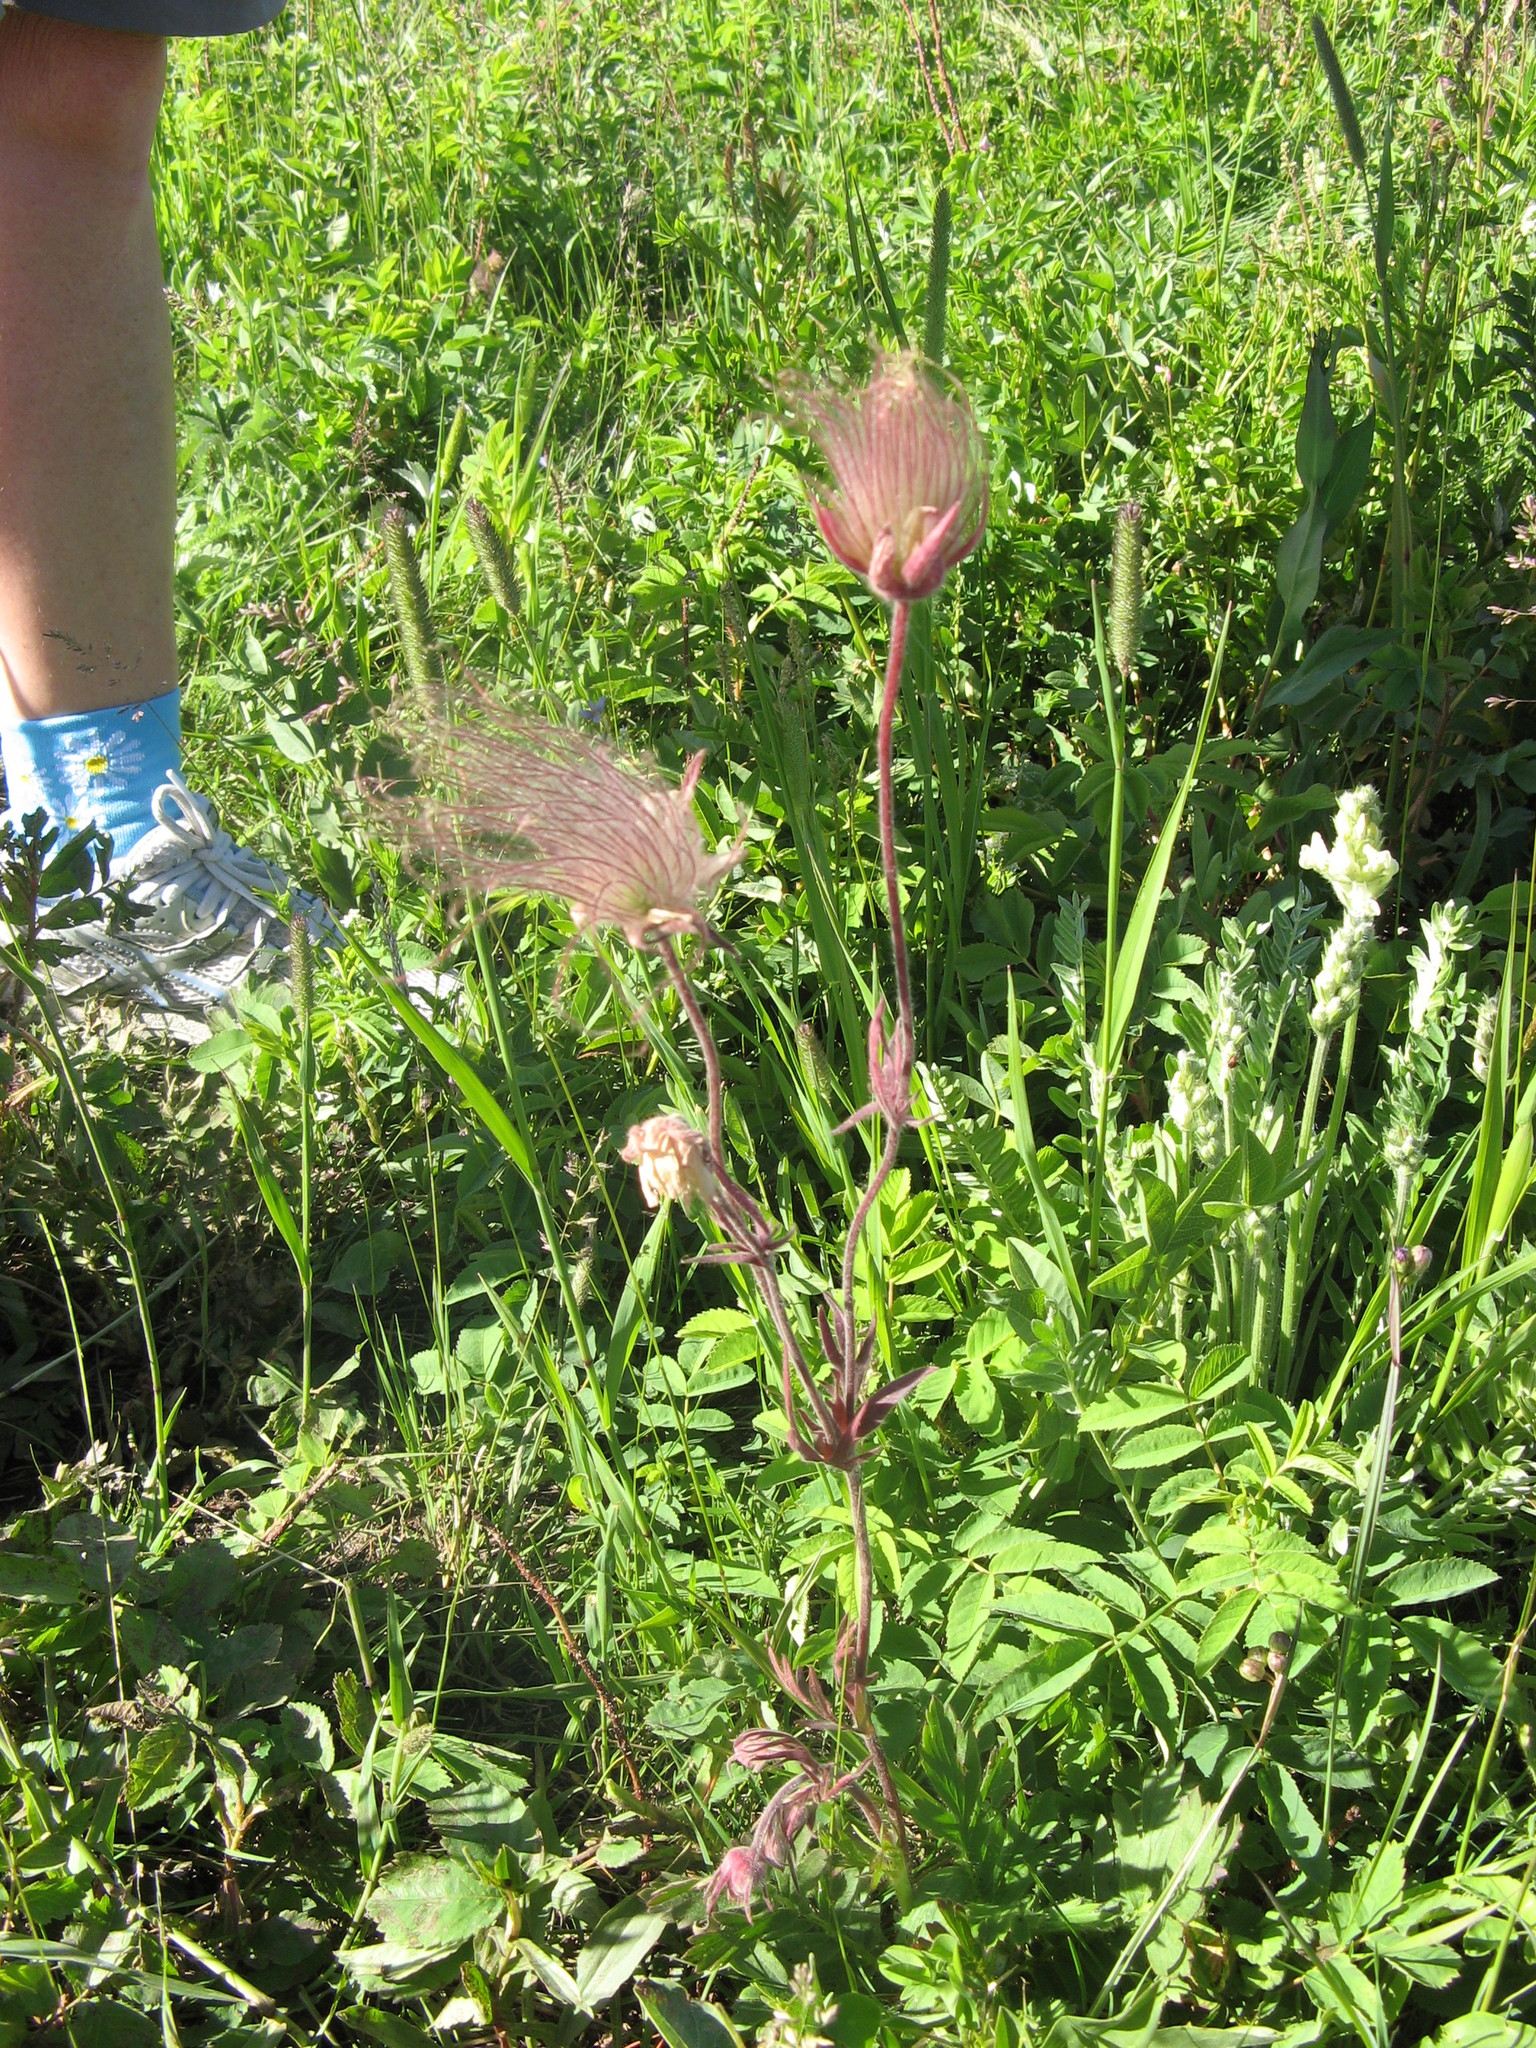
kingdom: Plantae
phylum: Tracheophyta
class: Magnoliopsida
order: Rosales
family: Rosaceae
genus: Geum
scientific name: Geum triflorum
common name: Old man's whiskers
